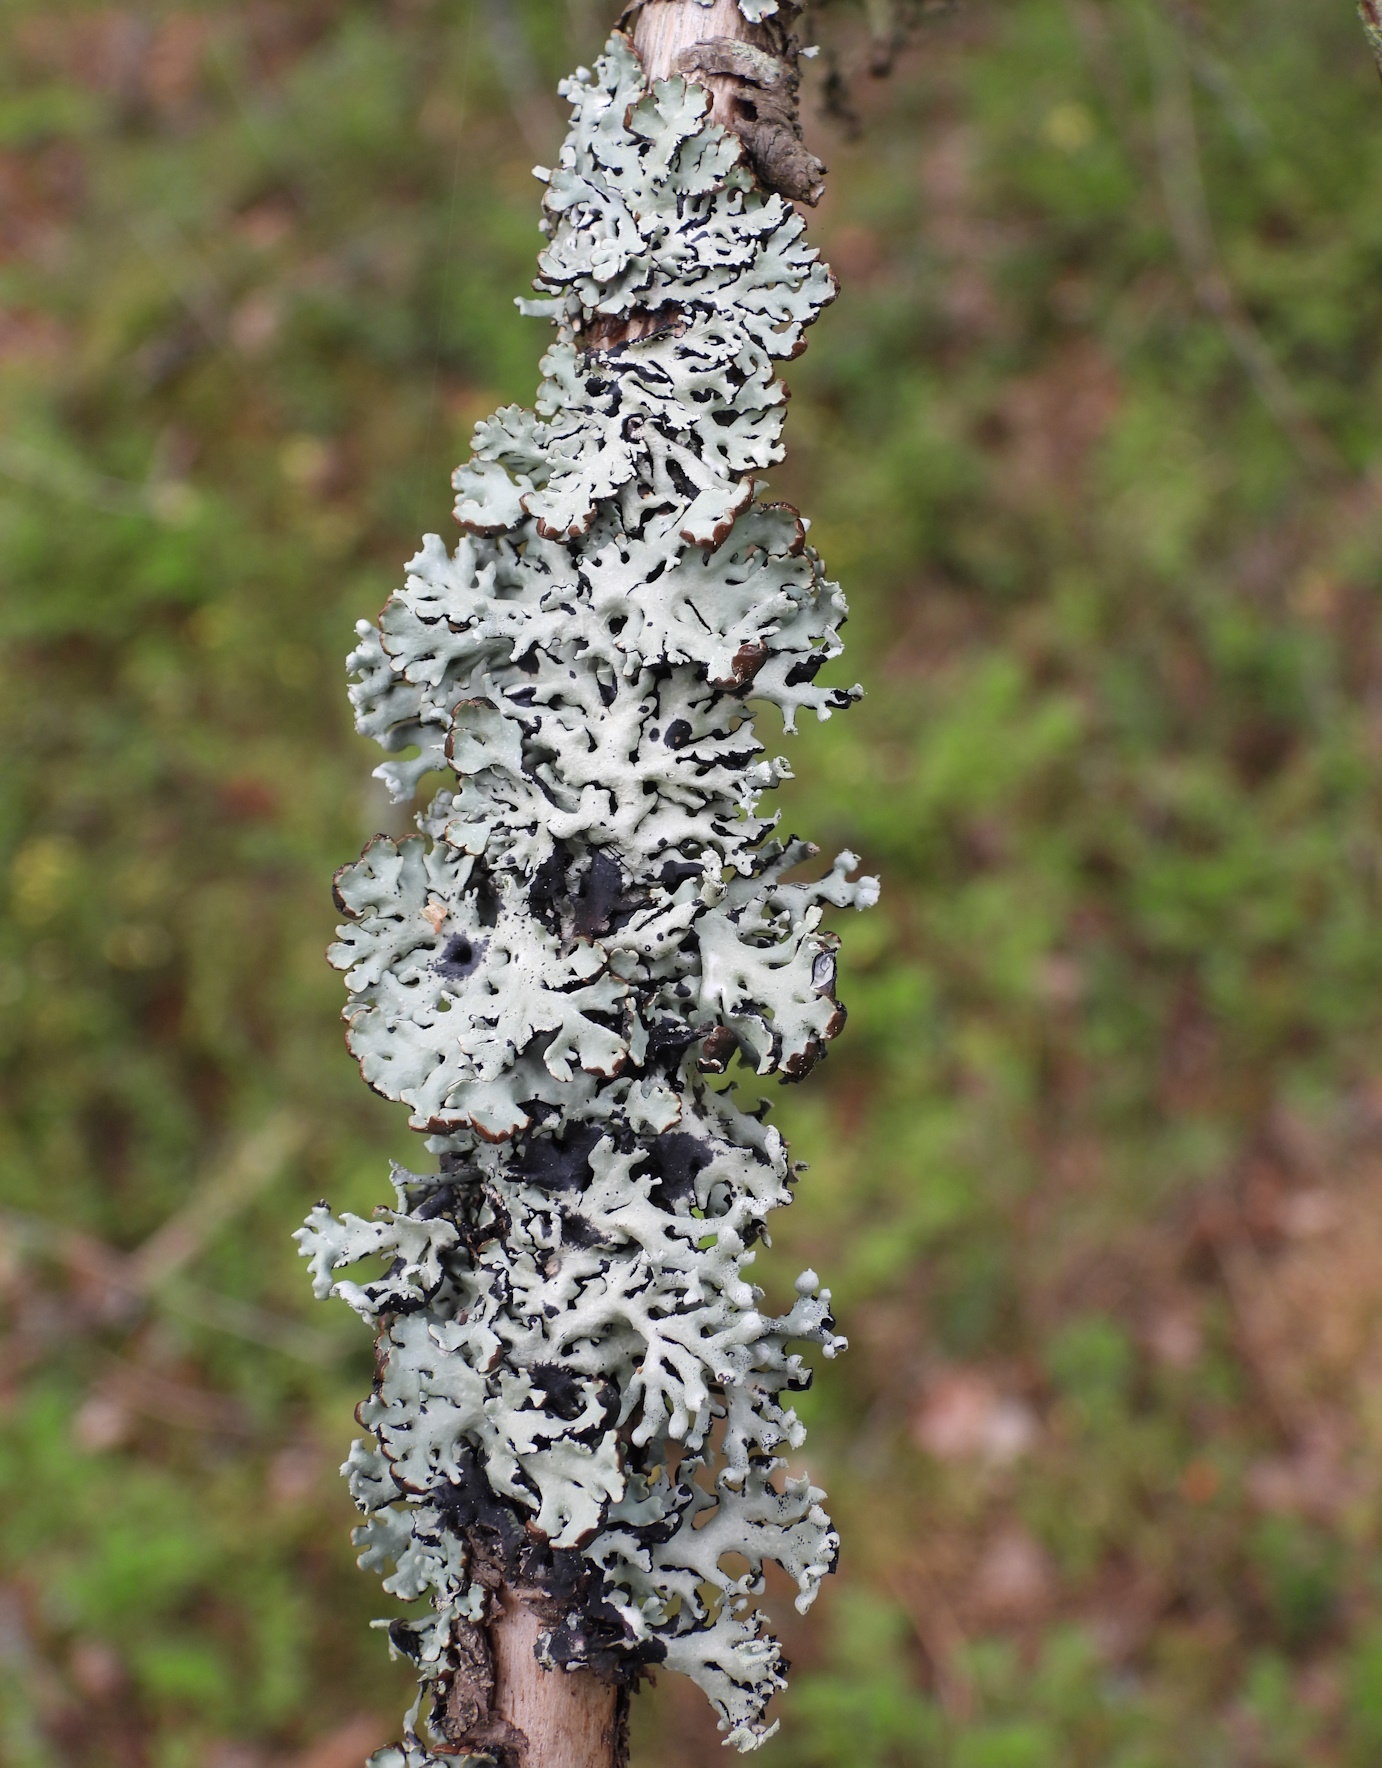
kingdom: Fungi
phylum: Ascomycota
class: Lecanoromycetes
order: Lecanorales
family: Parmeliaceae
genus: Hypogymnia
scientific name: Hypogymnia physodes
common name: Dark crottle
